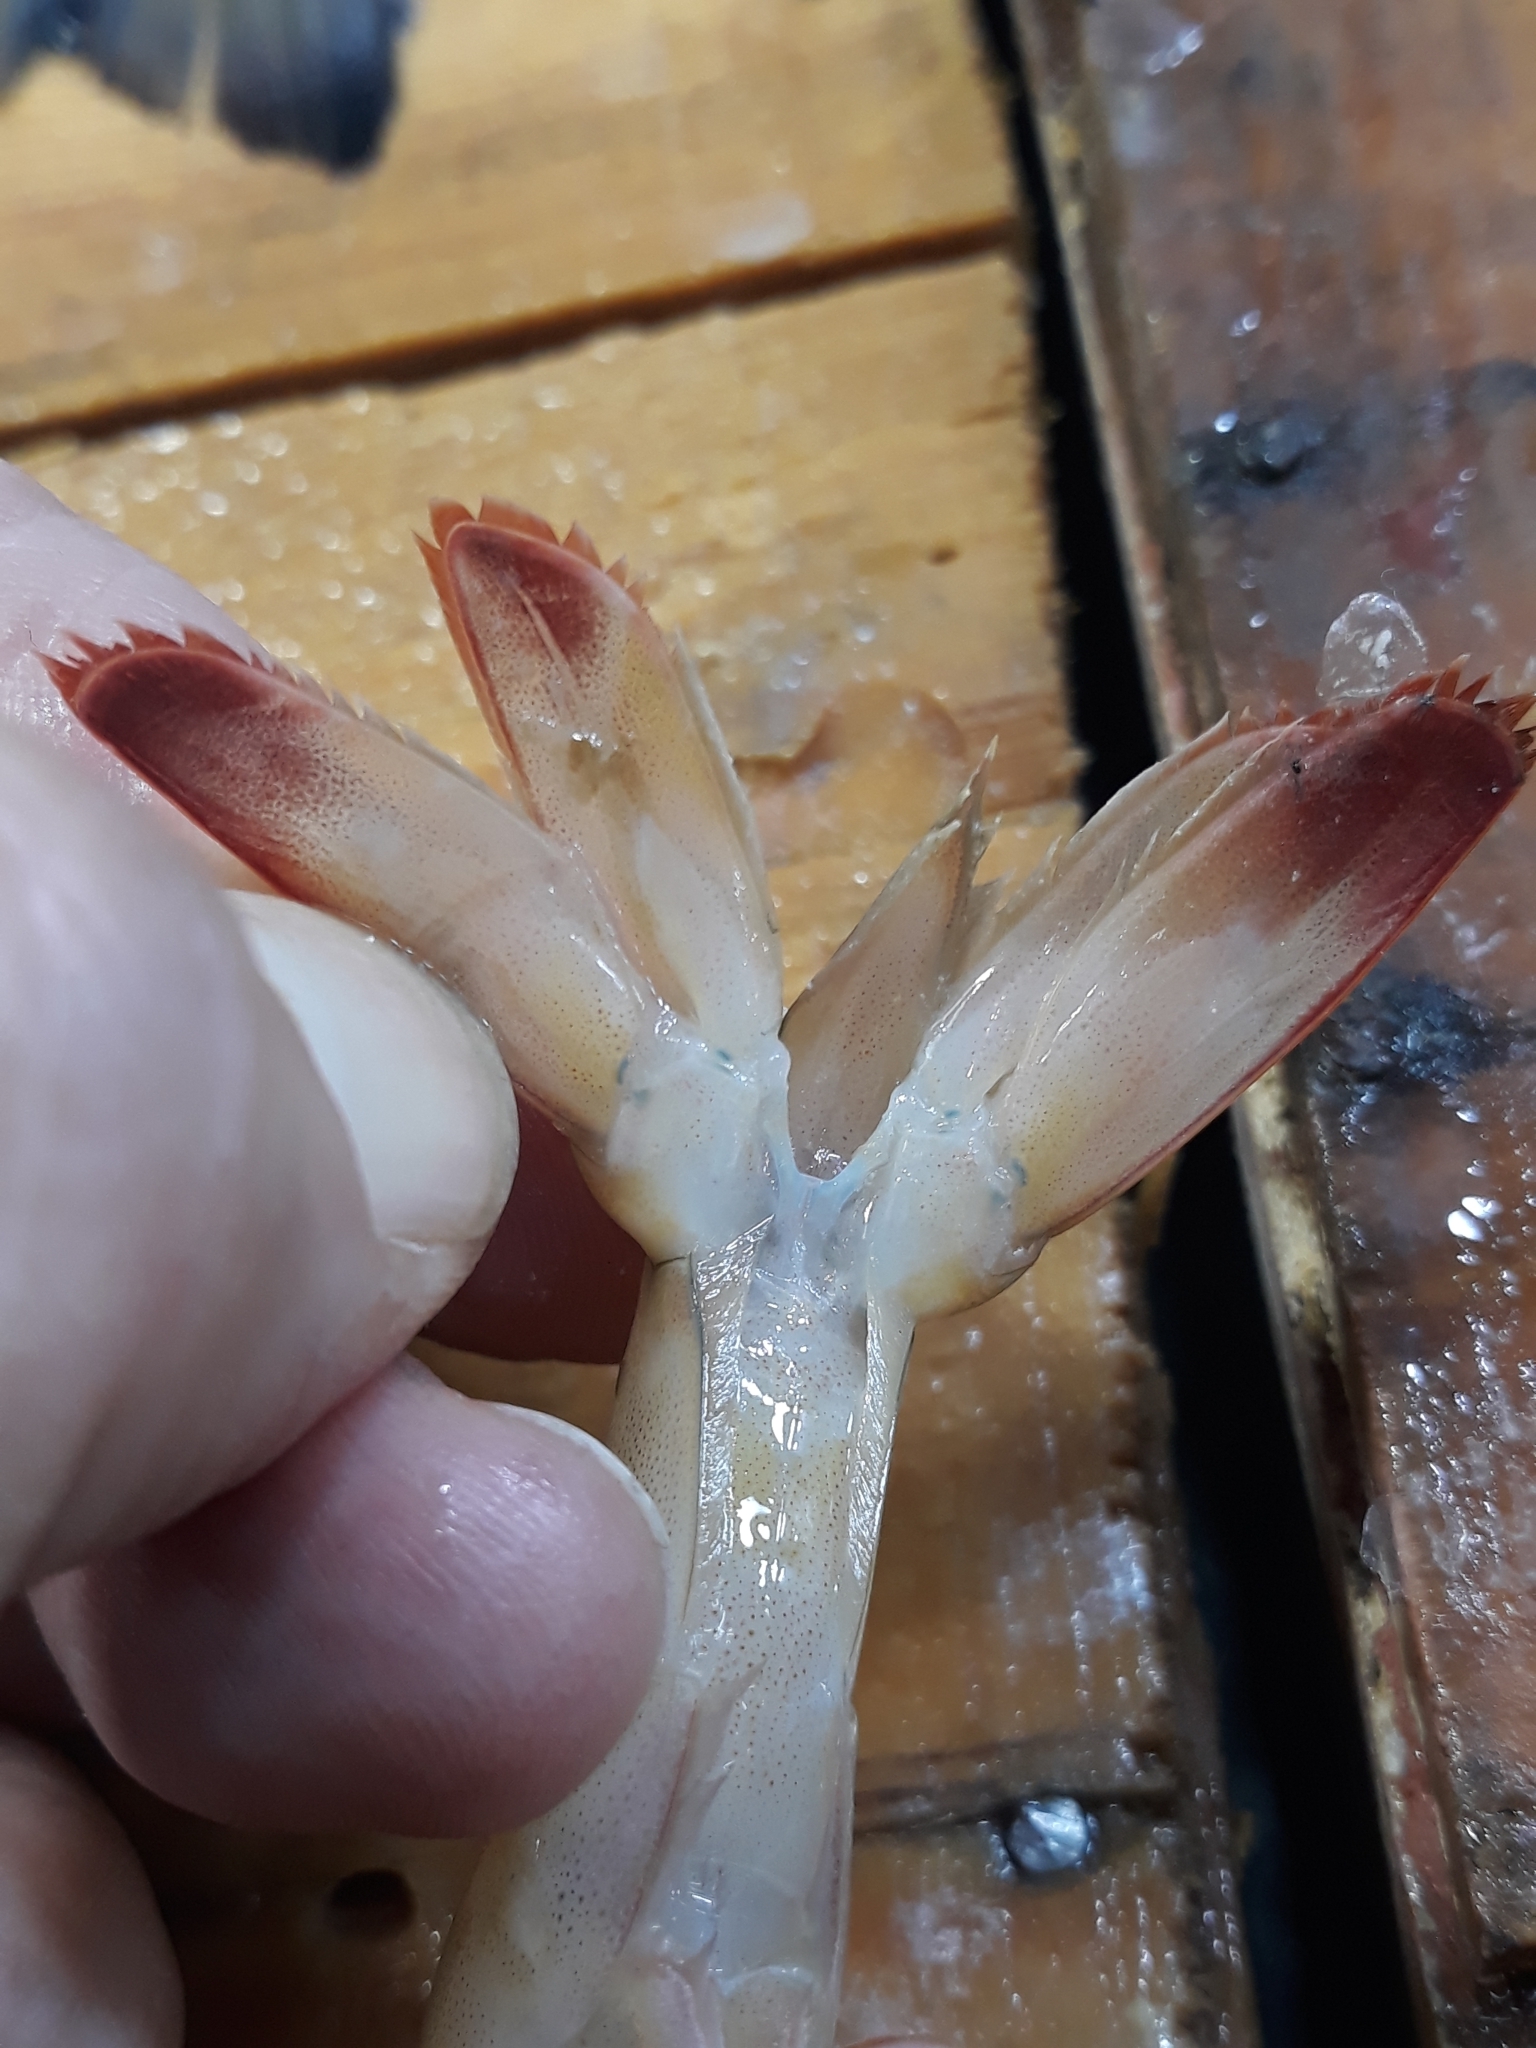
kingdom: Animalia
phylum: Arthropoda
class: Malacostraca
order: Decapoda
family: Penaeidae
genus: Penaeus
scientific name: Penaeus semisulcatus
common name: Green tiger prawn
